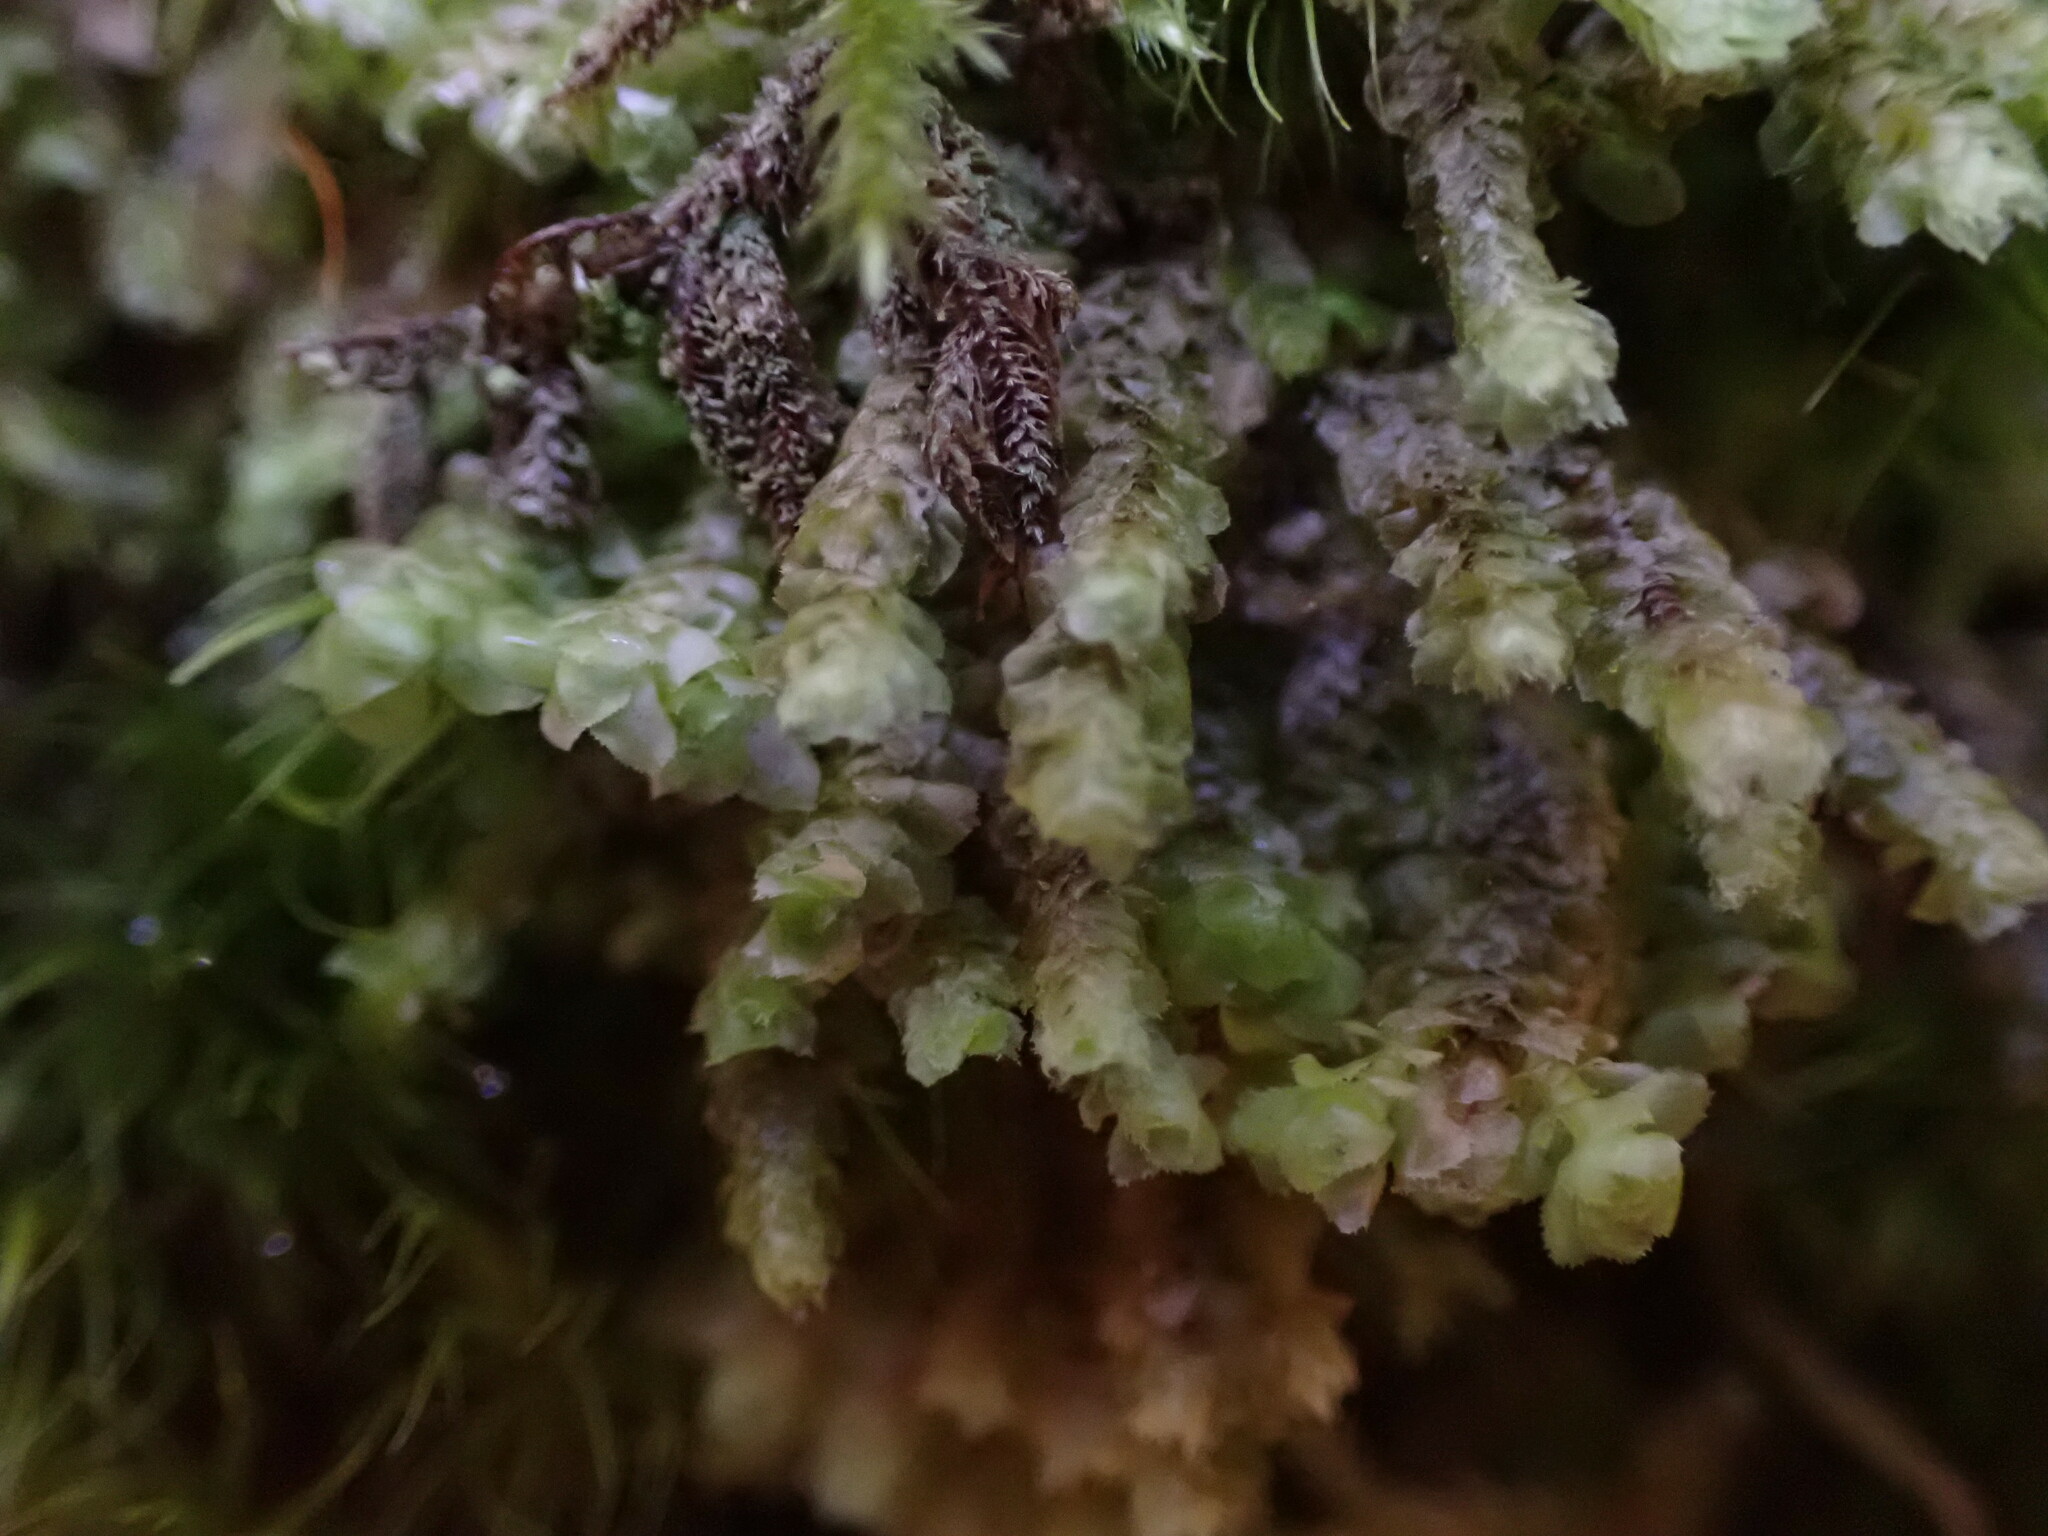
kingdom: Plantae
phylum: Marchantiophyta
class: Jungermanniopsida
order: Jungermanniales
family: Scapaniaceae
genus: Scapania
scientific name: Scapania bolanderi
